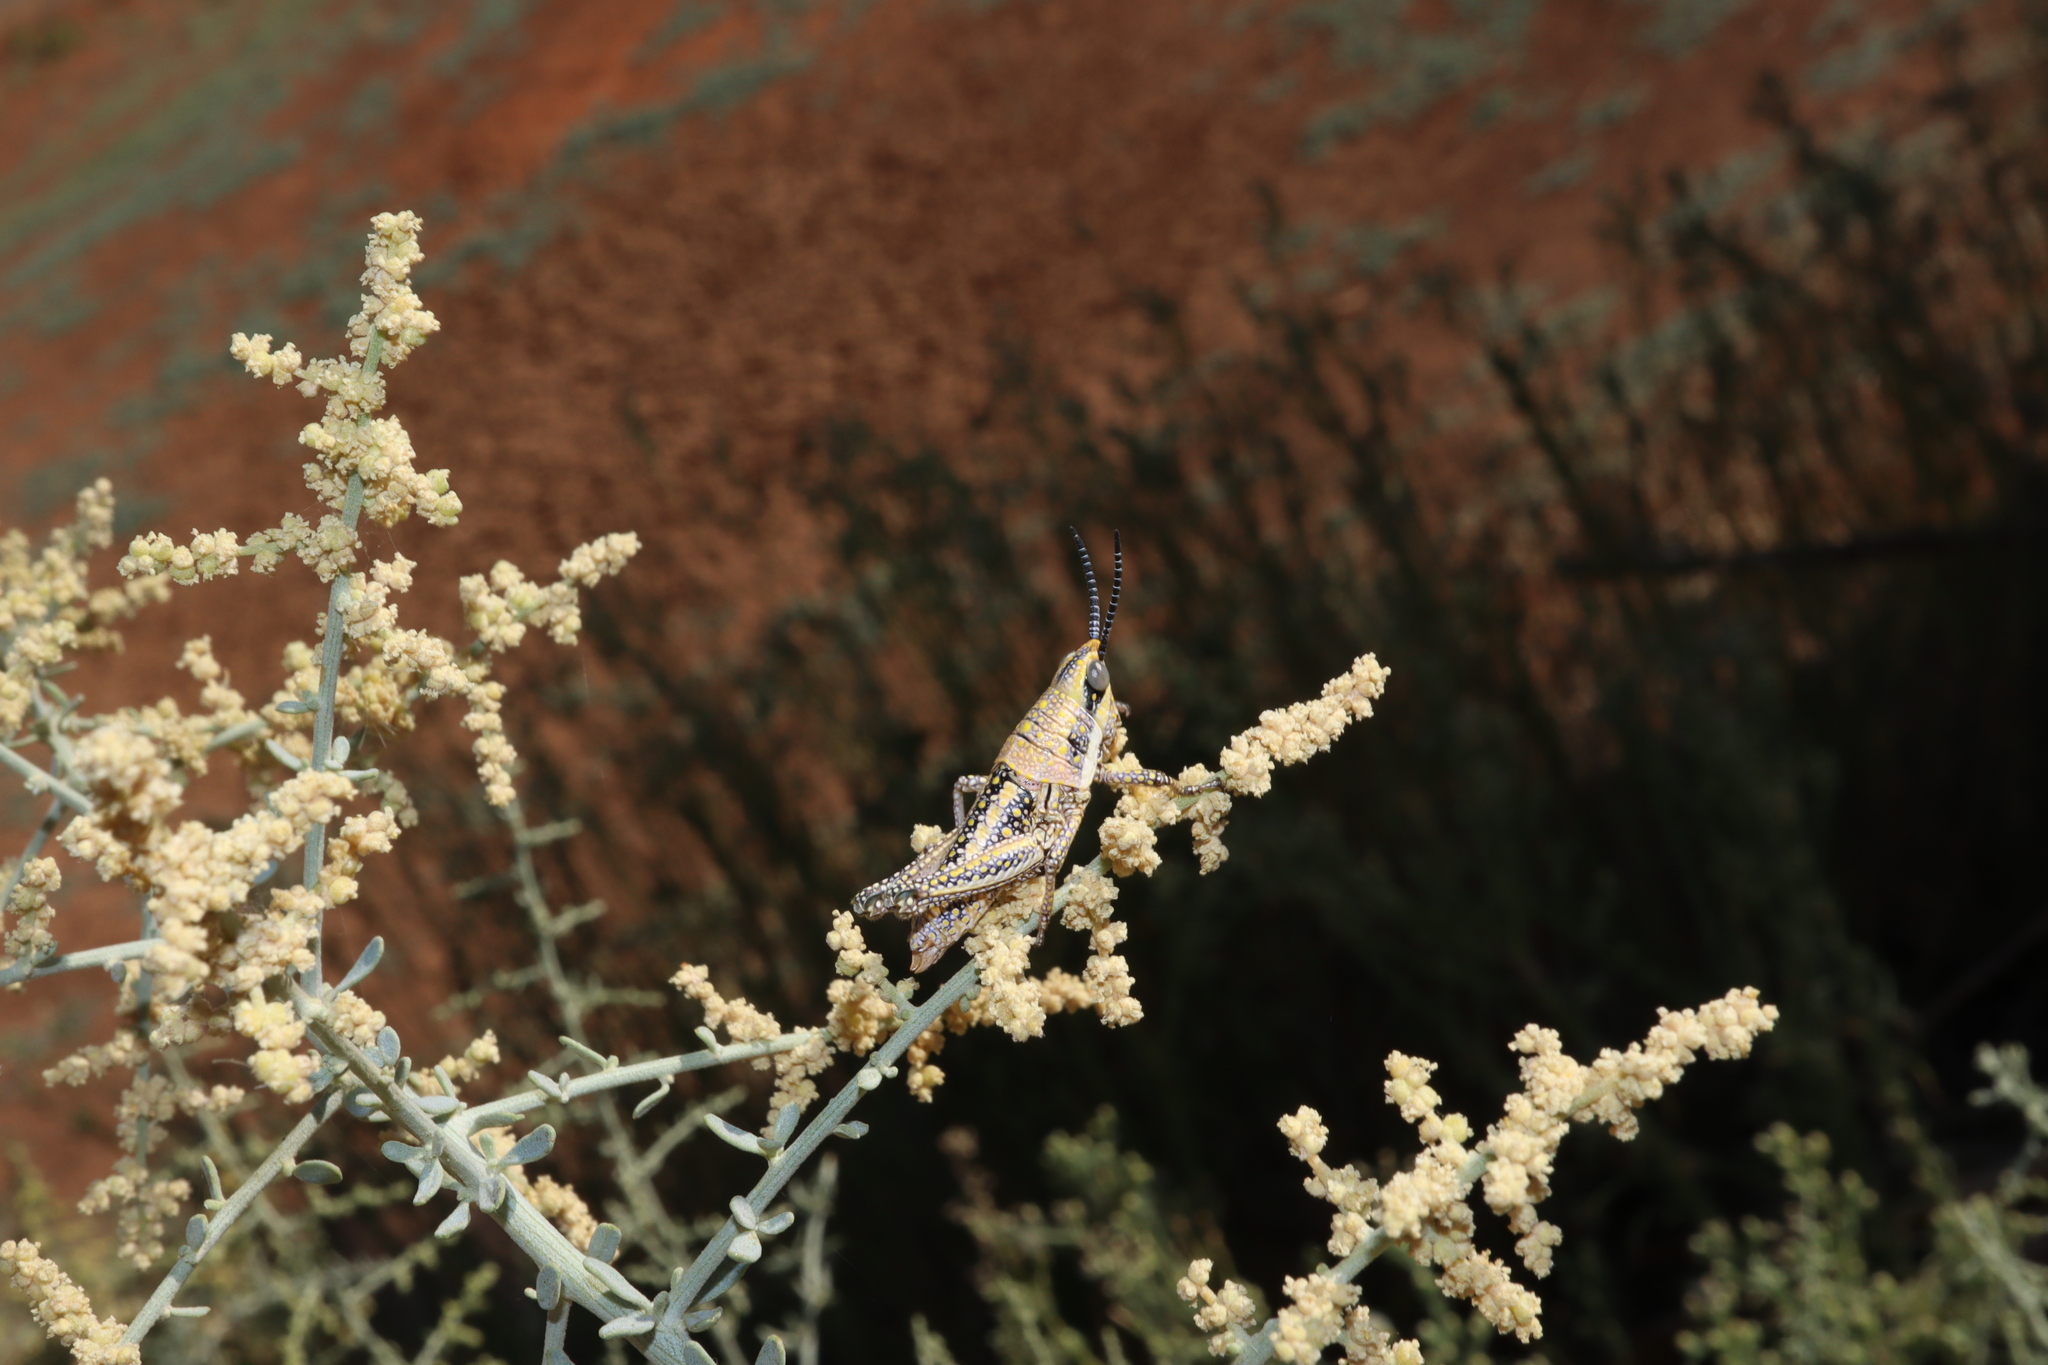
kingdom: Animalia
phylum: Arthropoda
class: Insecta
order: Orthoptera
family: Pyrgomorphidae
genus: Monistria
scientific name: Monistria pustulifera
